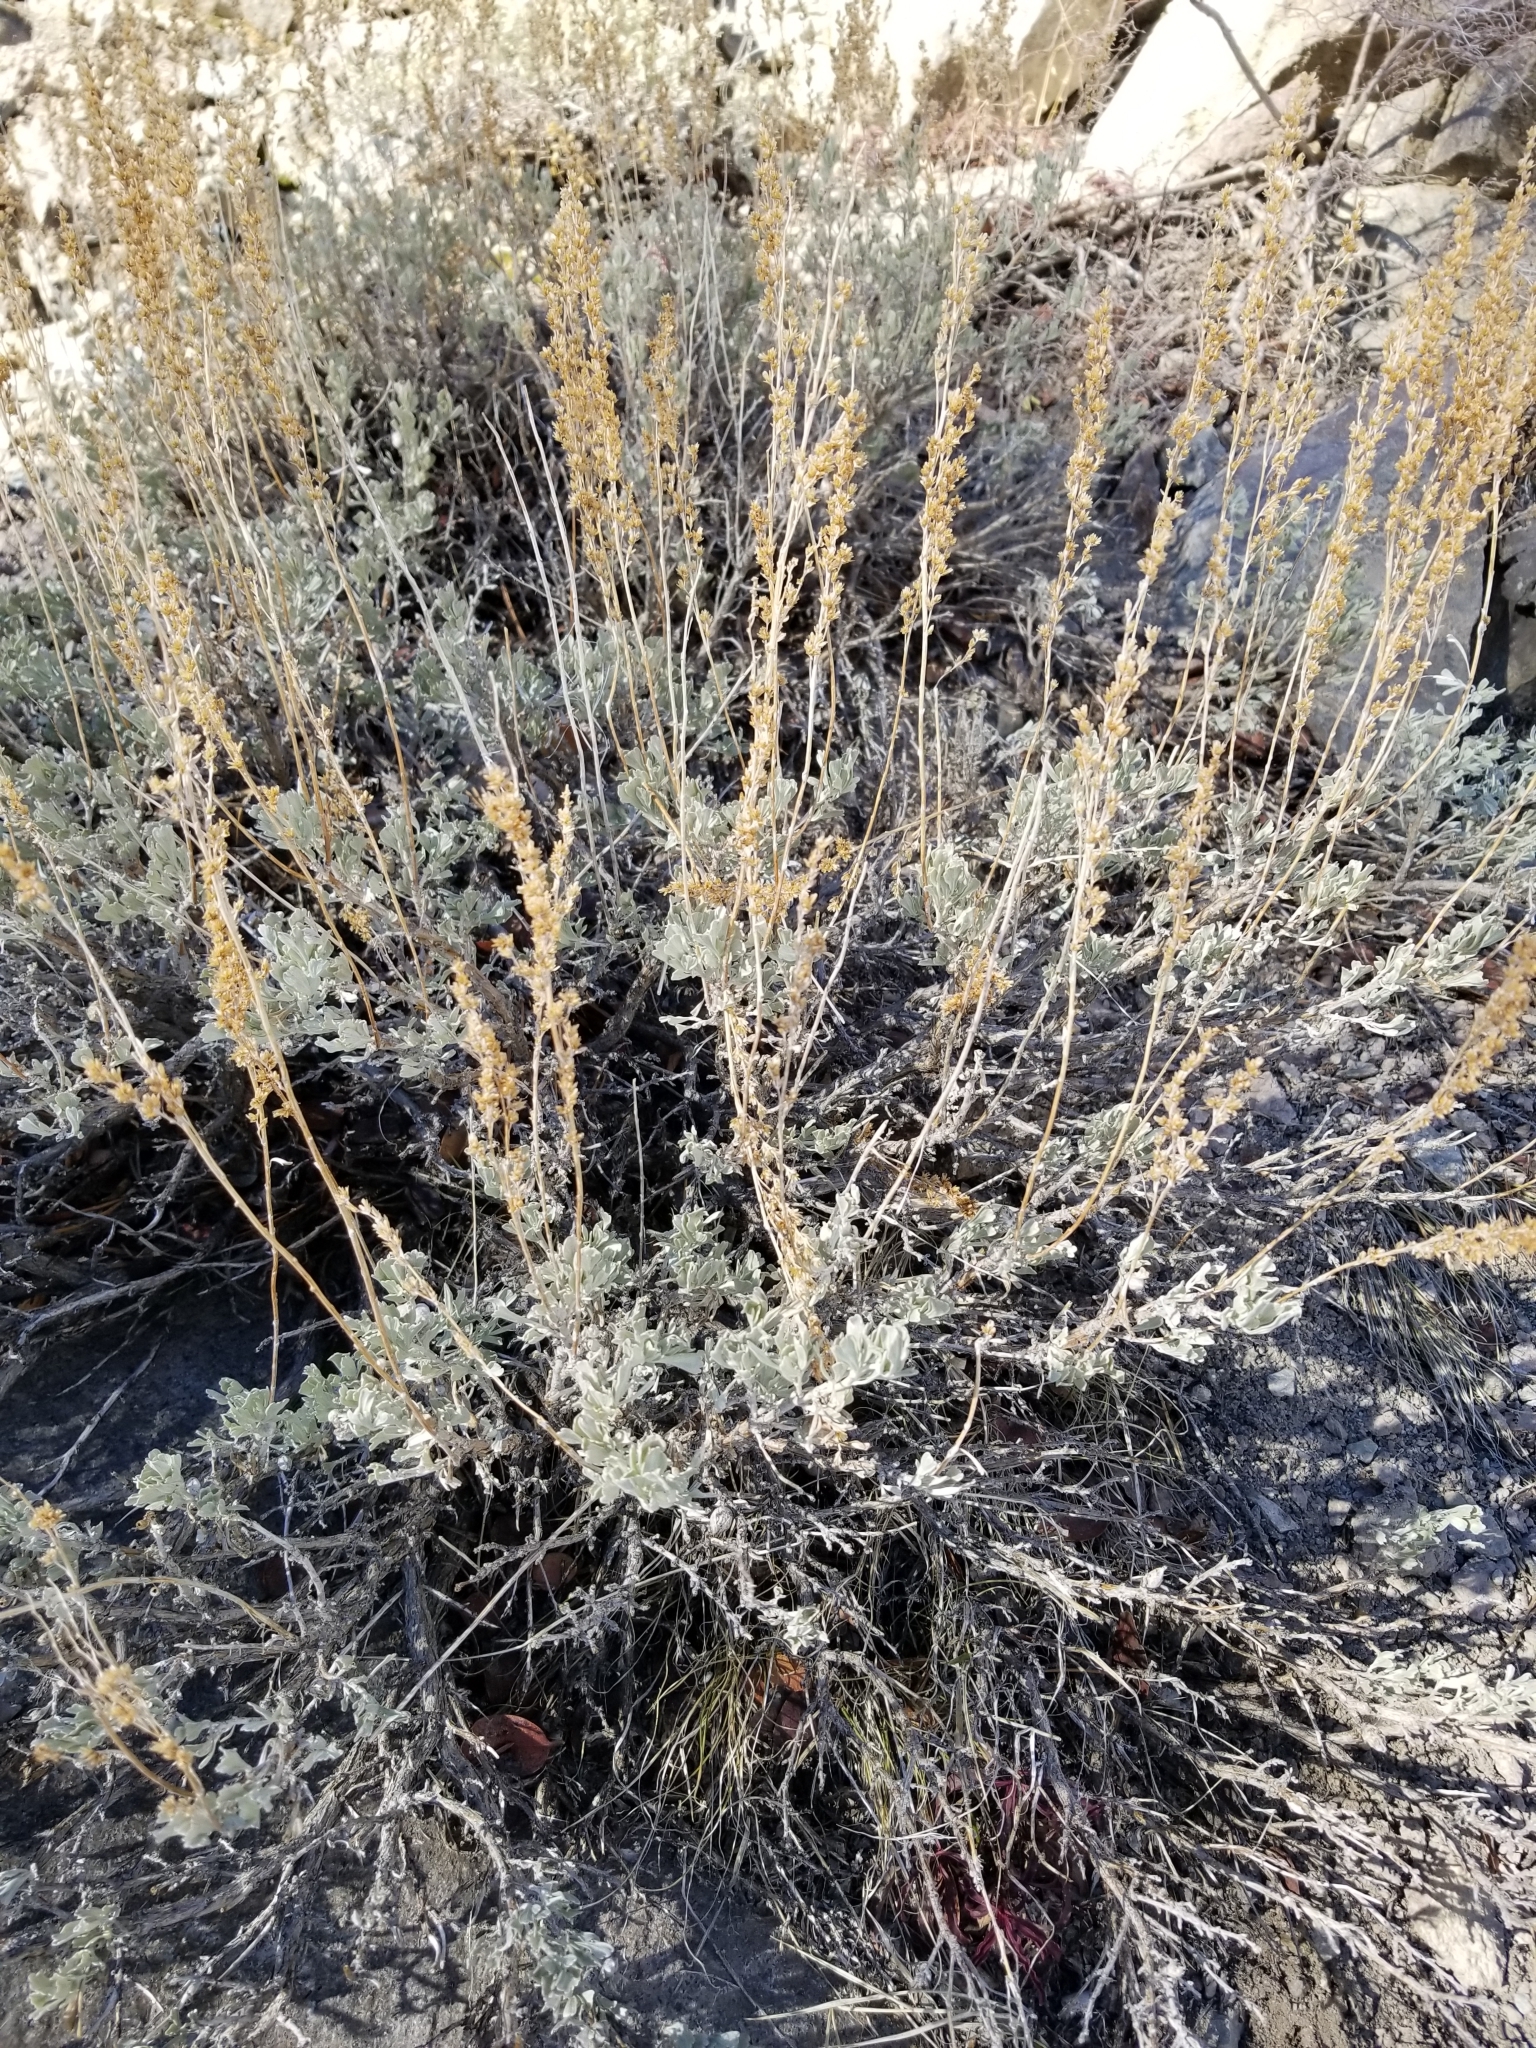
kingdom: Plantae
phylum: Tracheophyta
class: Magnoliopsida
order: Asterales
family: Asteraceae
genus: Artemisia
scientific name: Artemisia tridentata
